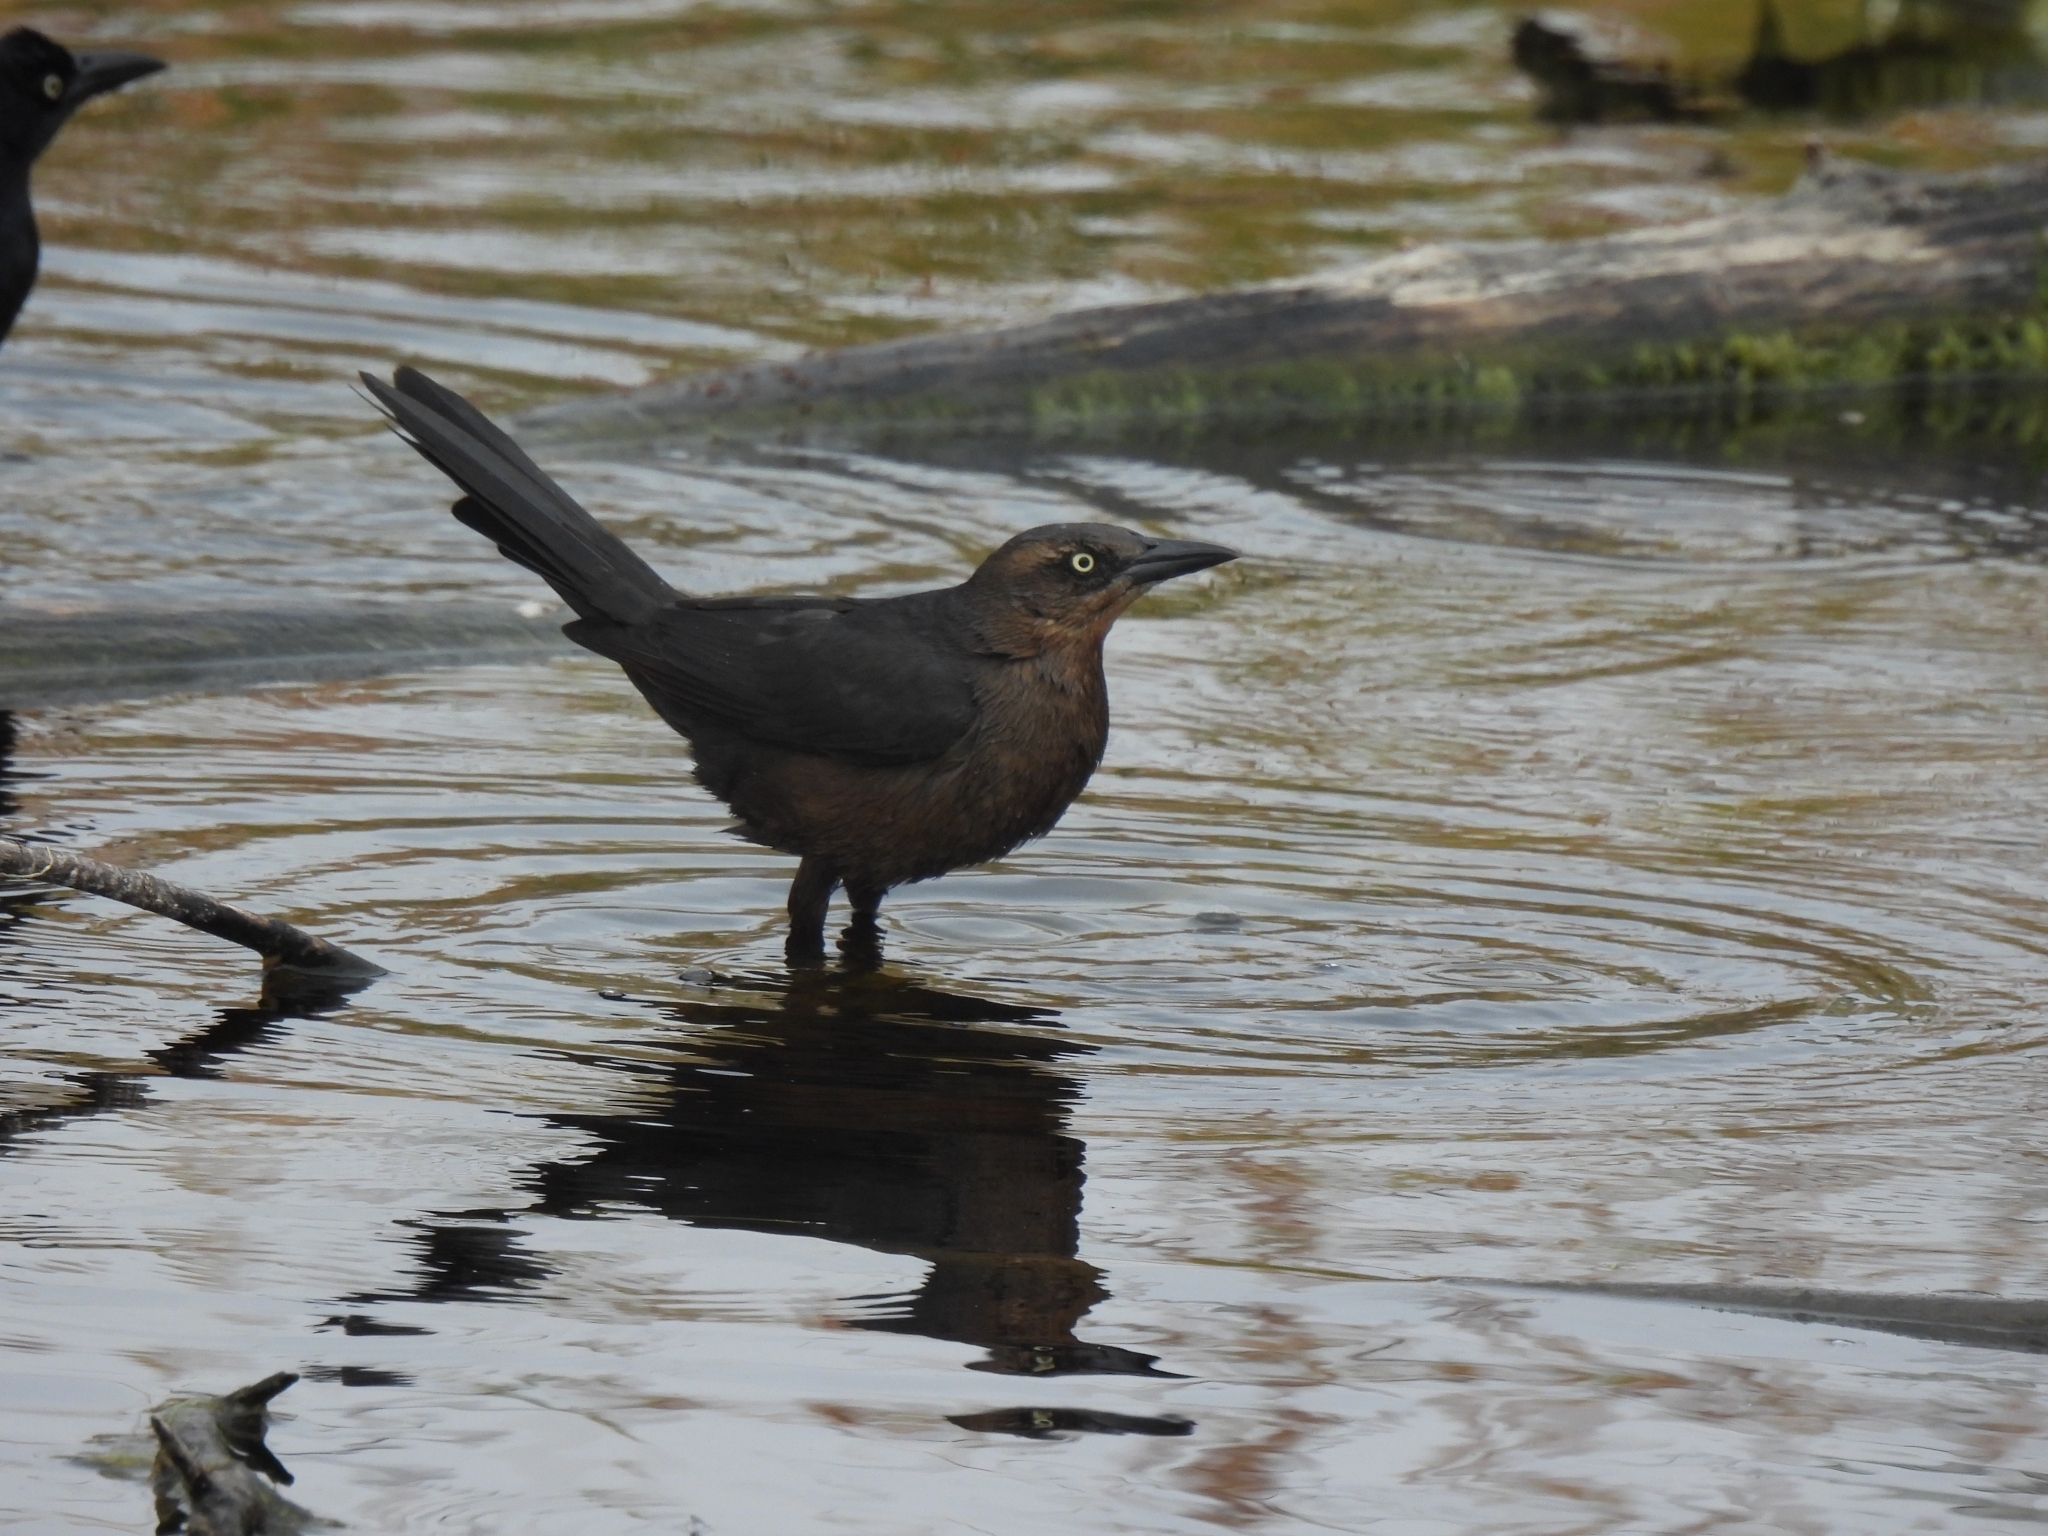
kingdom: Animalia
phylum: Chordata
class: Aves
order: Passeriformes
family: Icteridae
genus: Quiscalus
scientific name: Quiscalus mexicanus
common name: Great-tailed grackle
